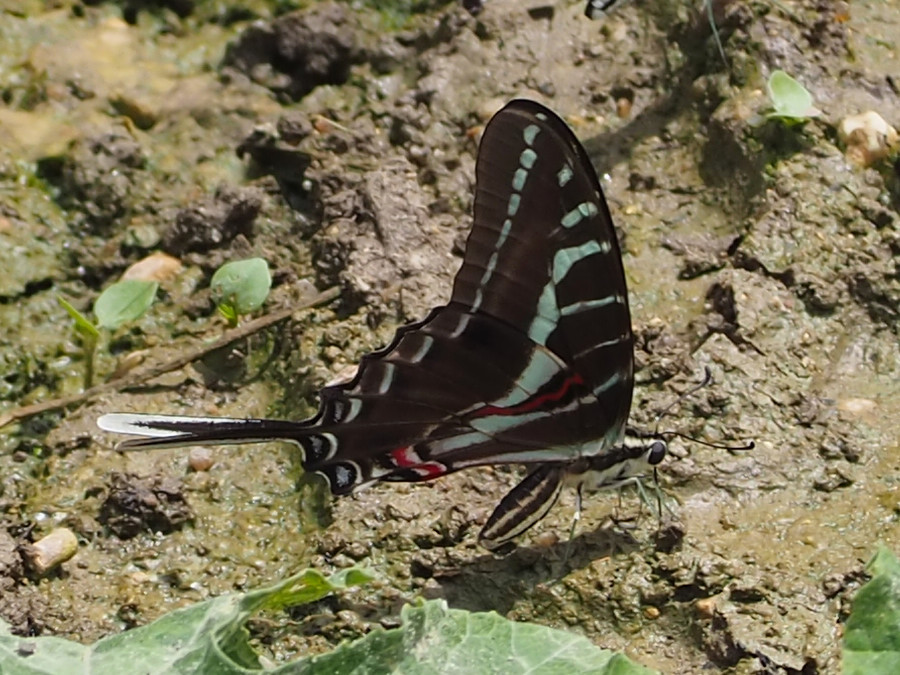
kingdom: Animalia
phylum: Arthropoda
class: Insecta
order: Lepidoptera
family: Papilionidae
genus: Protographium
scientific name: Protographium philolaus
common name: Dark zebra swallowtail
